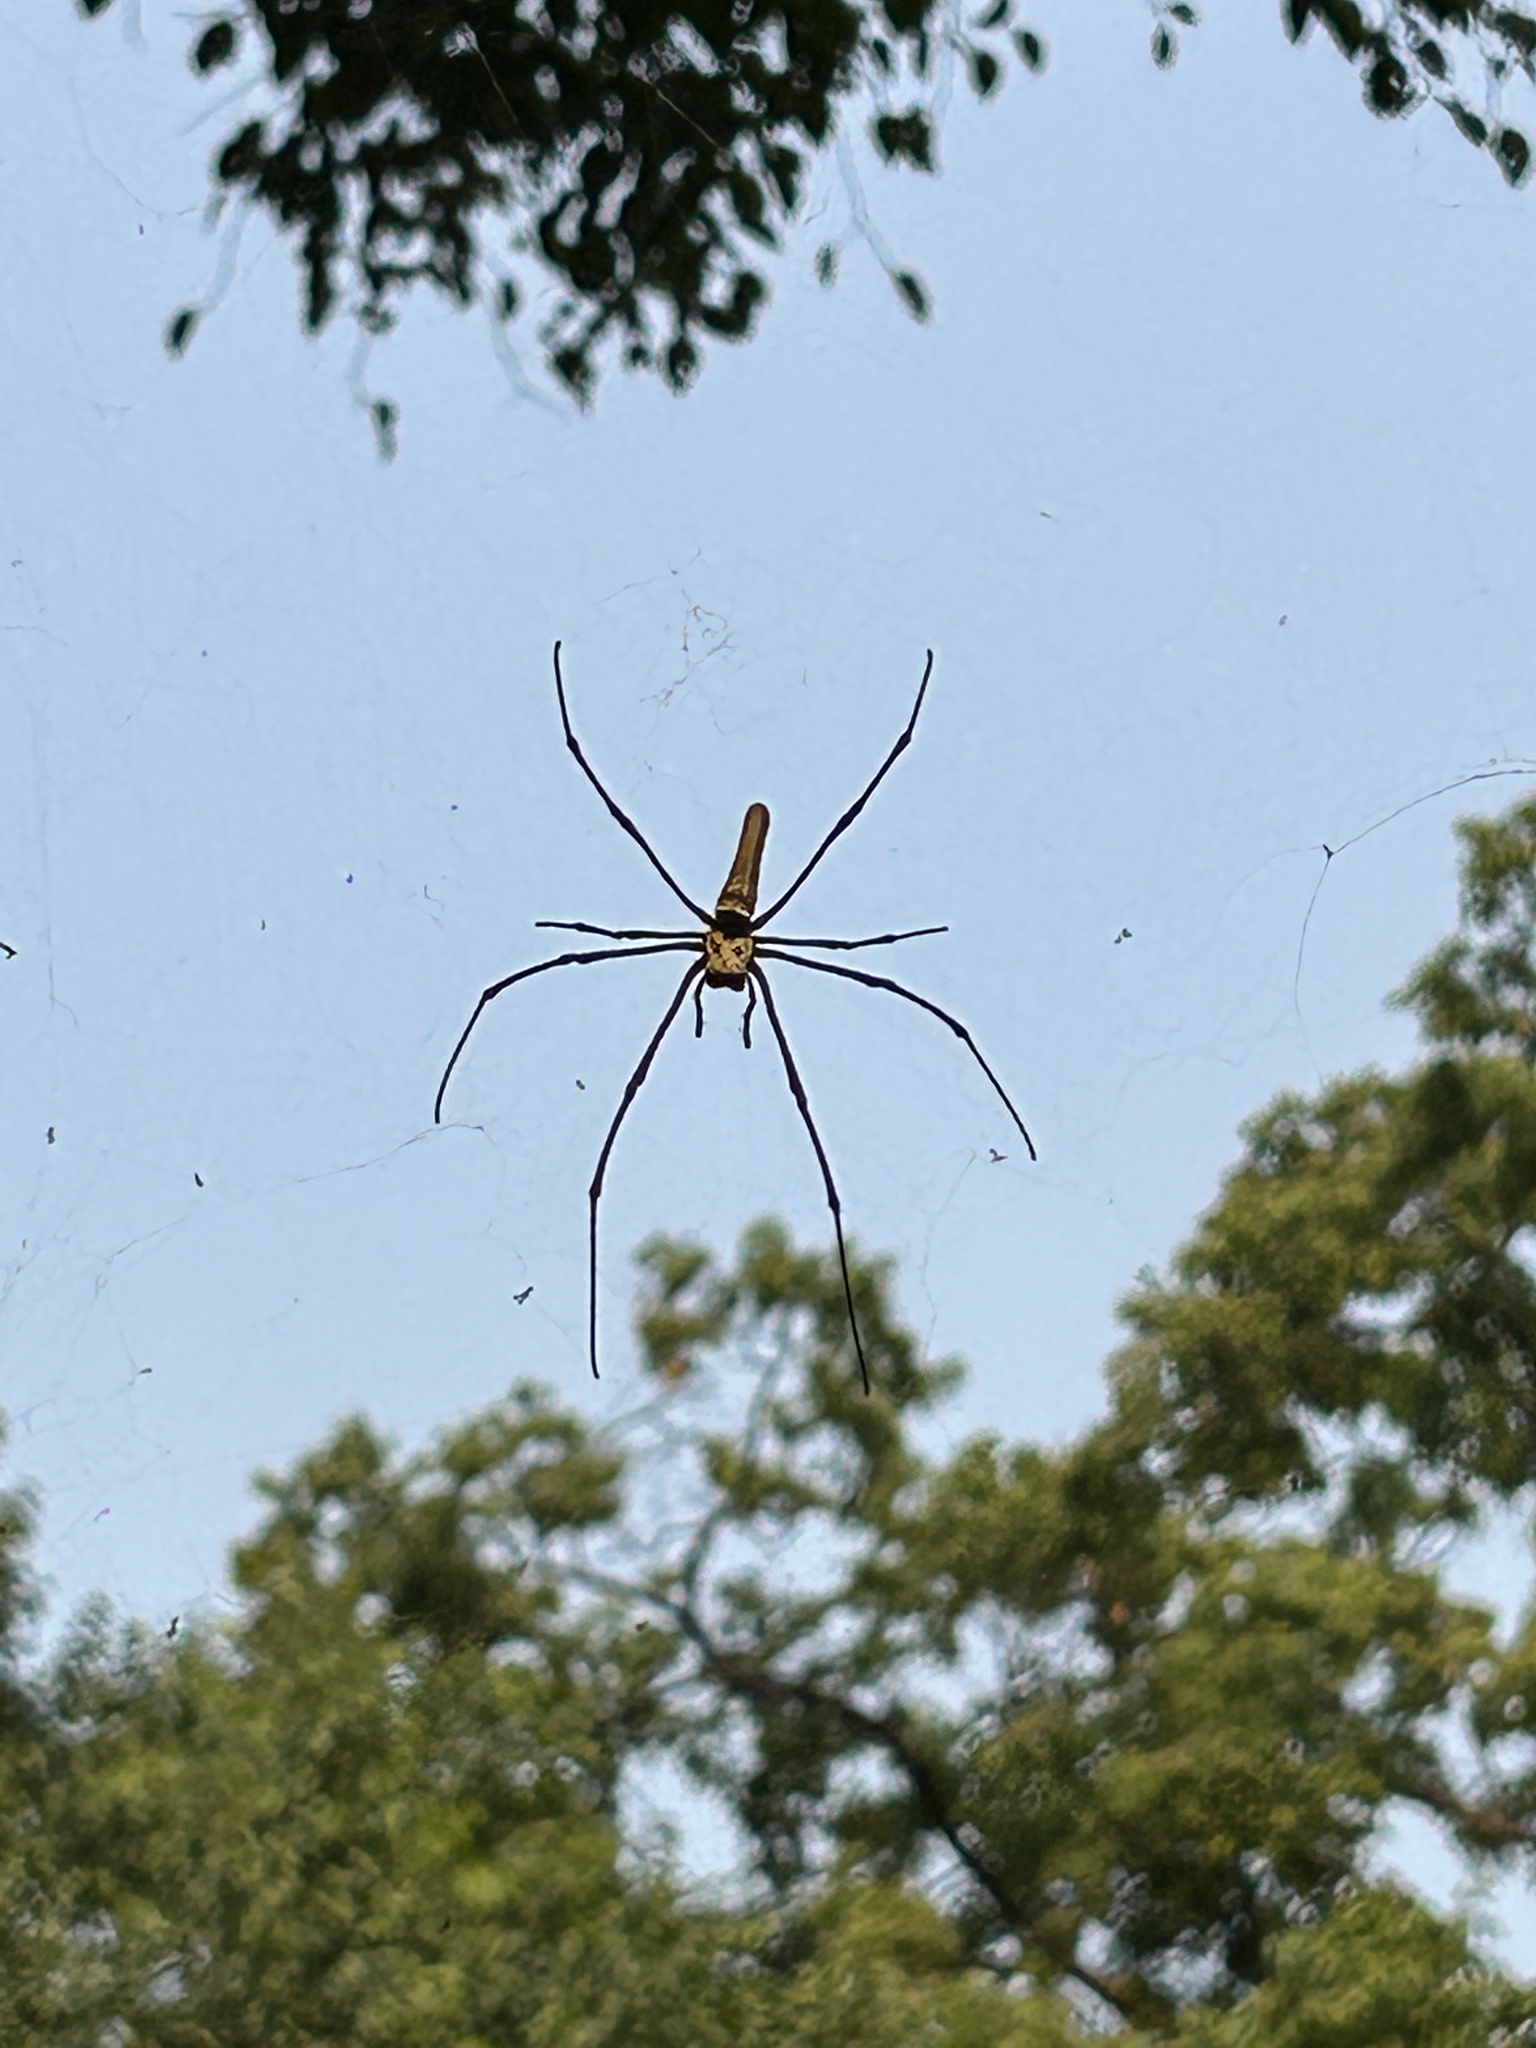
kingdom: Animalia
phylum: Arthropoda
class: Arachnida
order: Araneae
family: Araneidae
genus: Nephila
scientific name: Nephila pilipes
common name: Giant golden orb weaver
